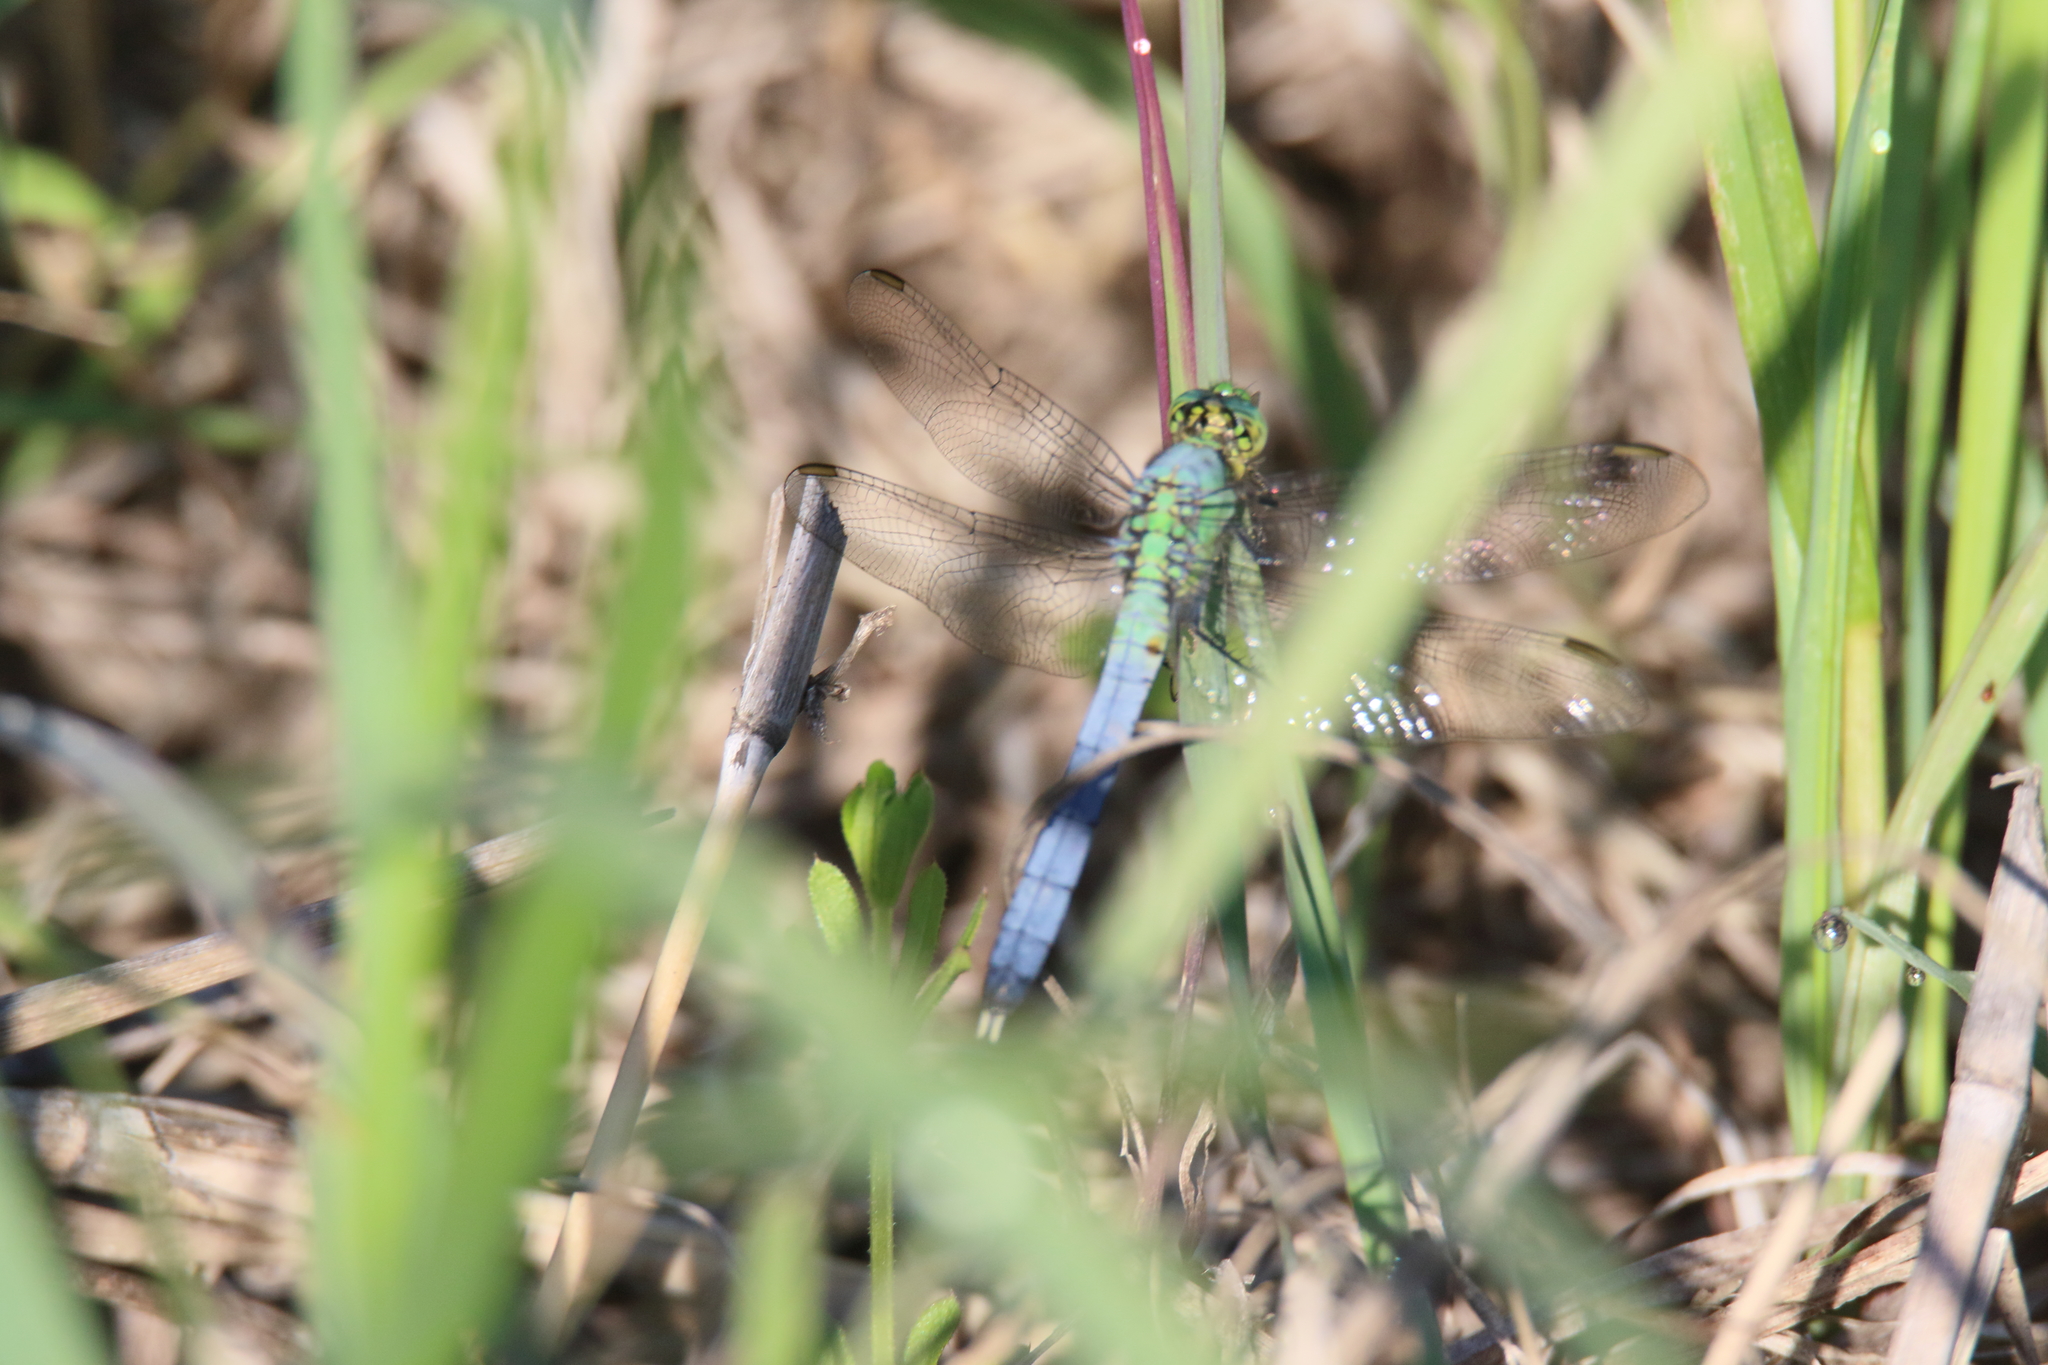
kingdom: Animalia
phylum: Arthropoda
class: Insecta
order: Odonata
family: Libellulidae
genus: Erythemis
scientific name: Erythemis simplicicollis
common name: Eastern pondhawk
